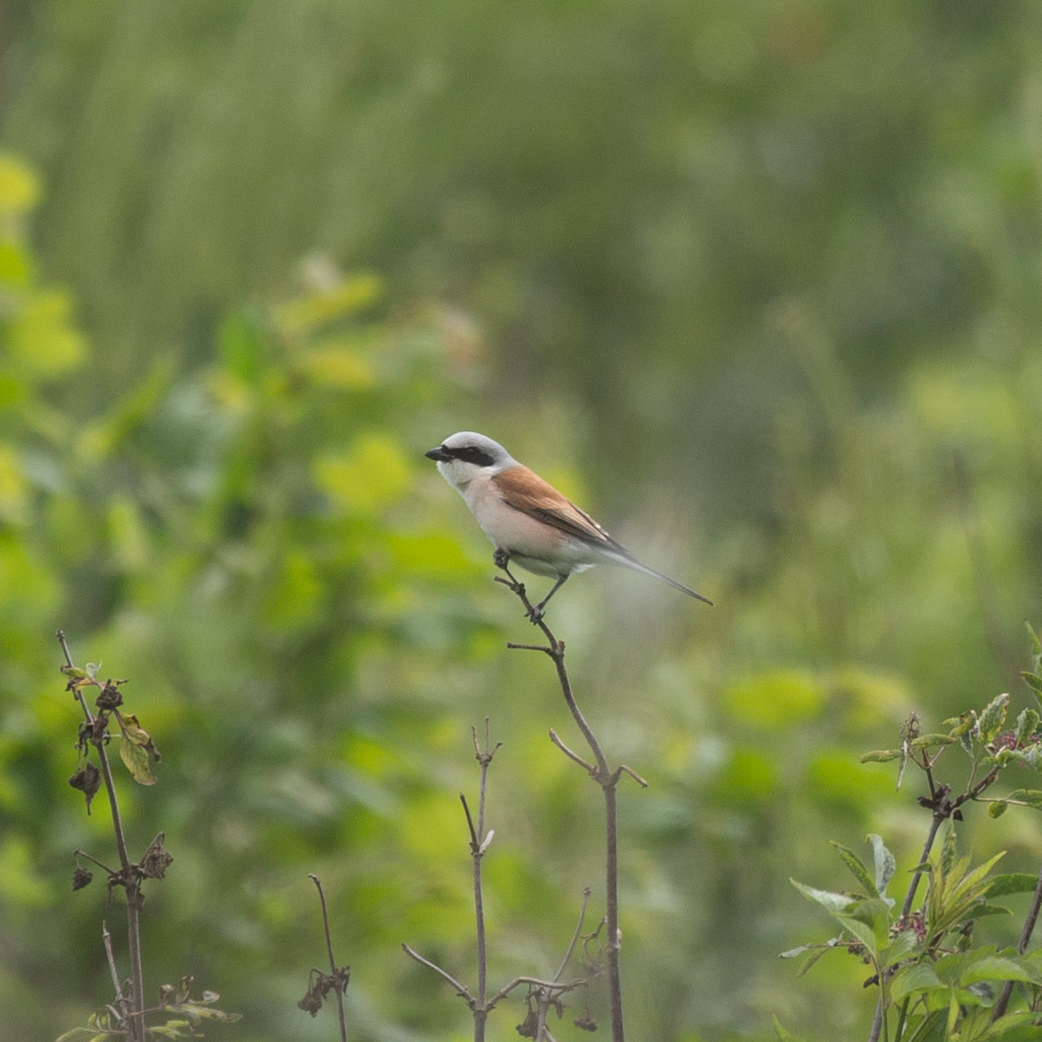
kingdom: Animalia
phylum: Chordata
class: Aves
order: Passeriformes
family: Laniidae
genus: Lanius
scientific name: Lanius collurio
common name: Red-backed shrike
